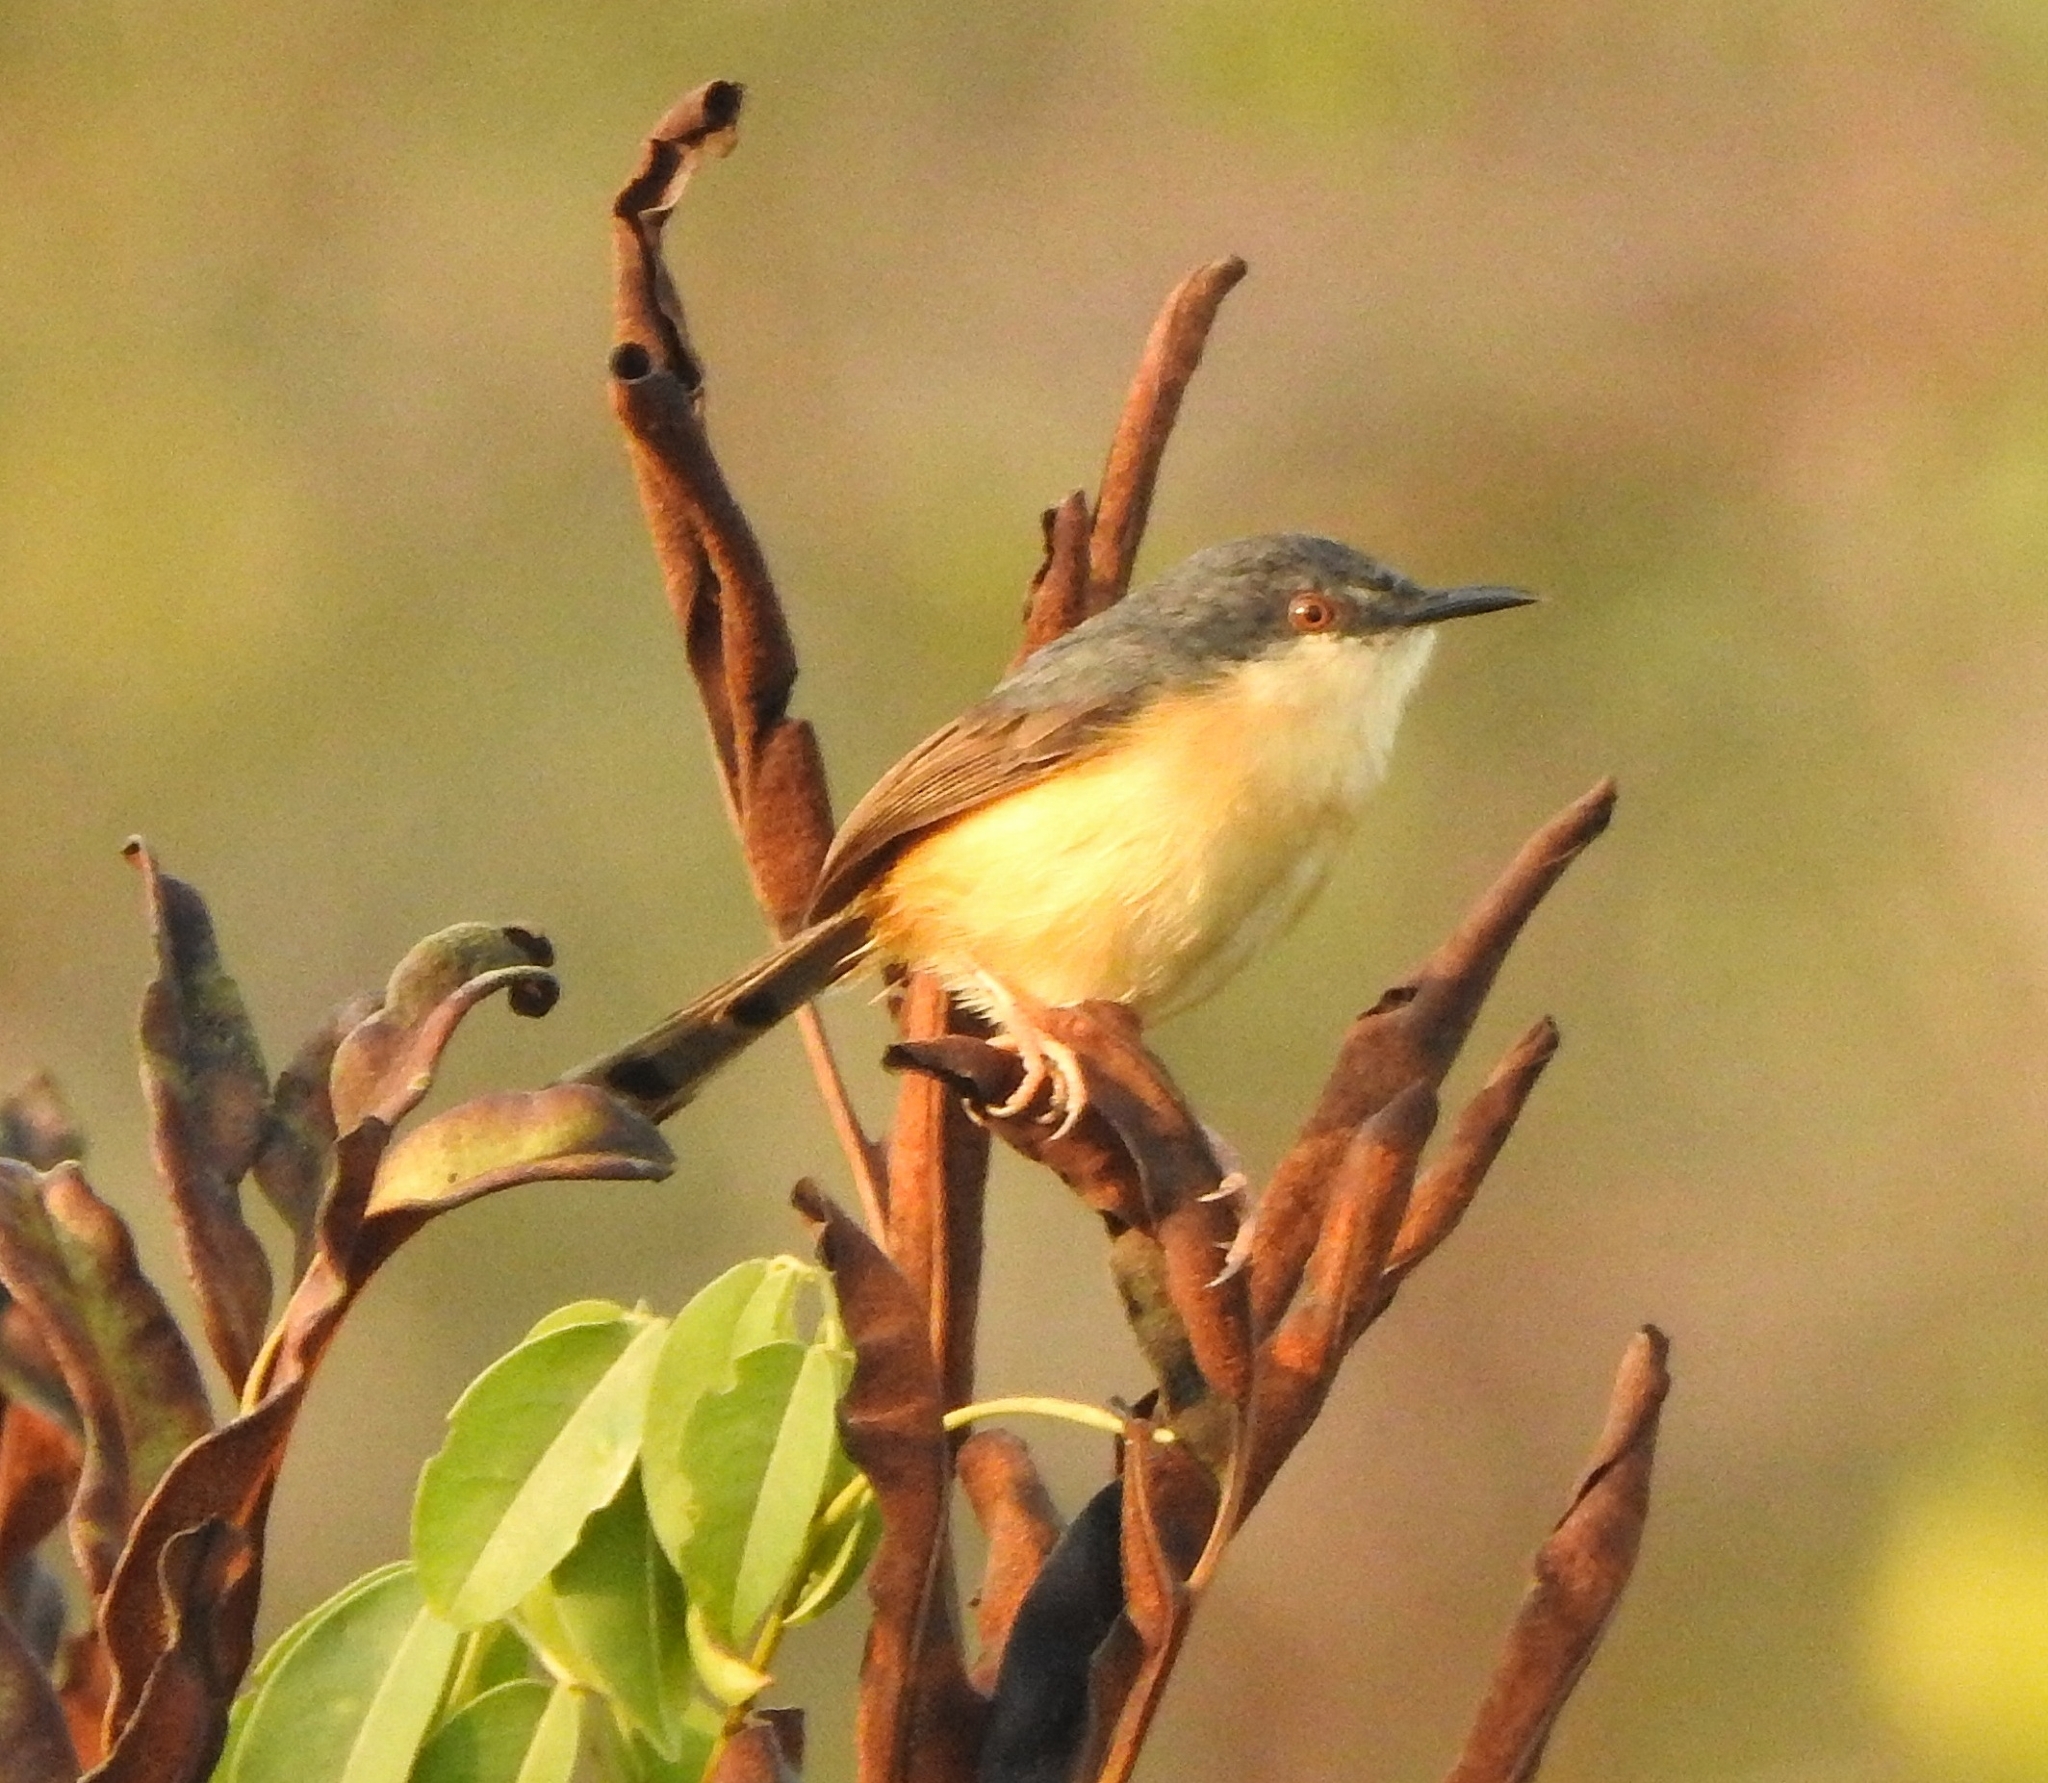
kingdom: Animalia
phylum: Chordata
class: Aves
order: Passeriformes
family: Cisticolidae
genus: Prinia
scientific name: Prinia socialis
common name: Ashy prinia
